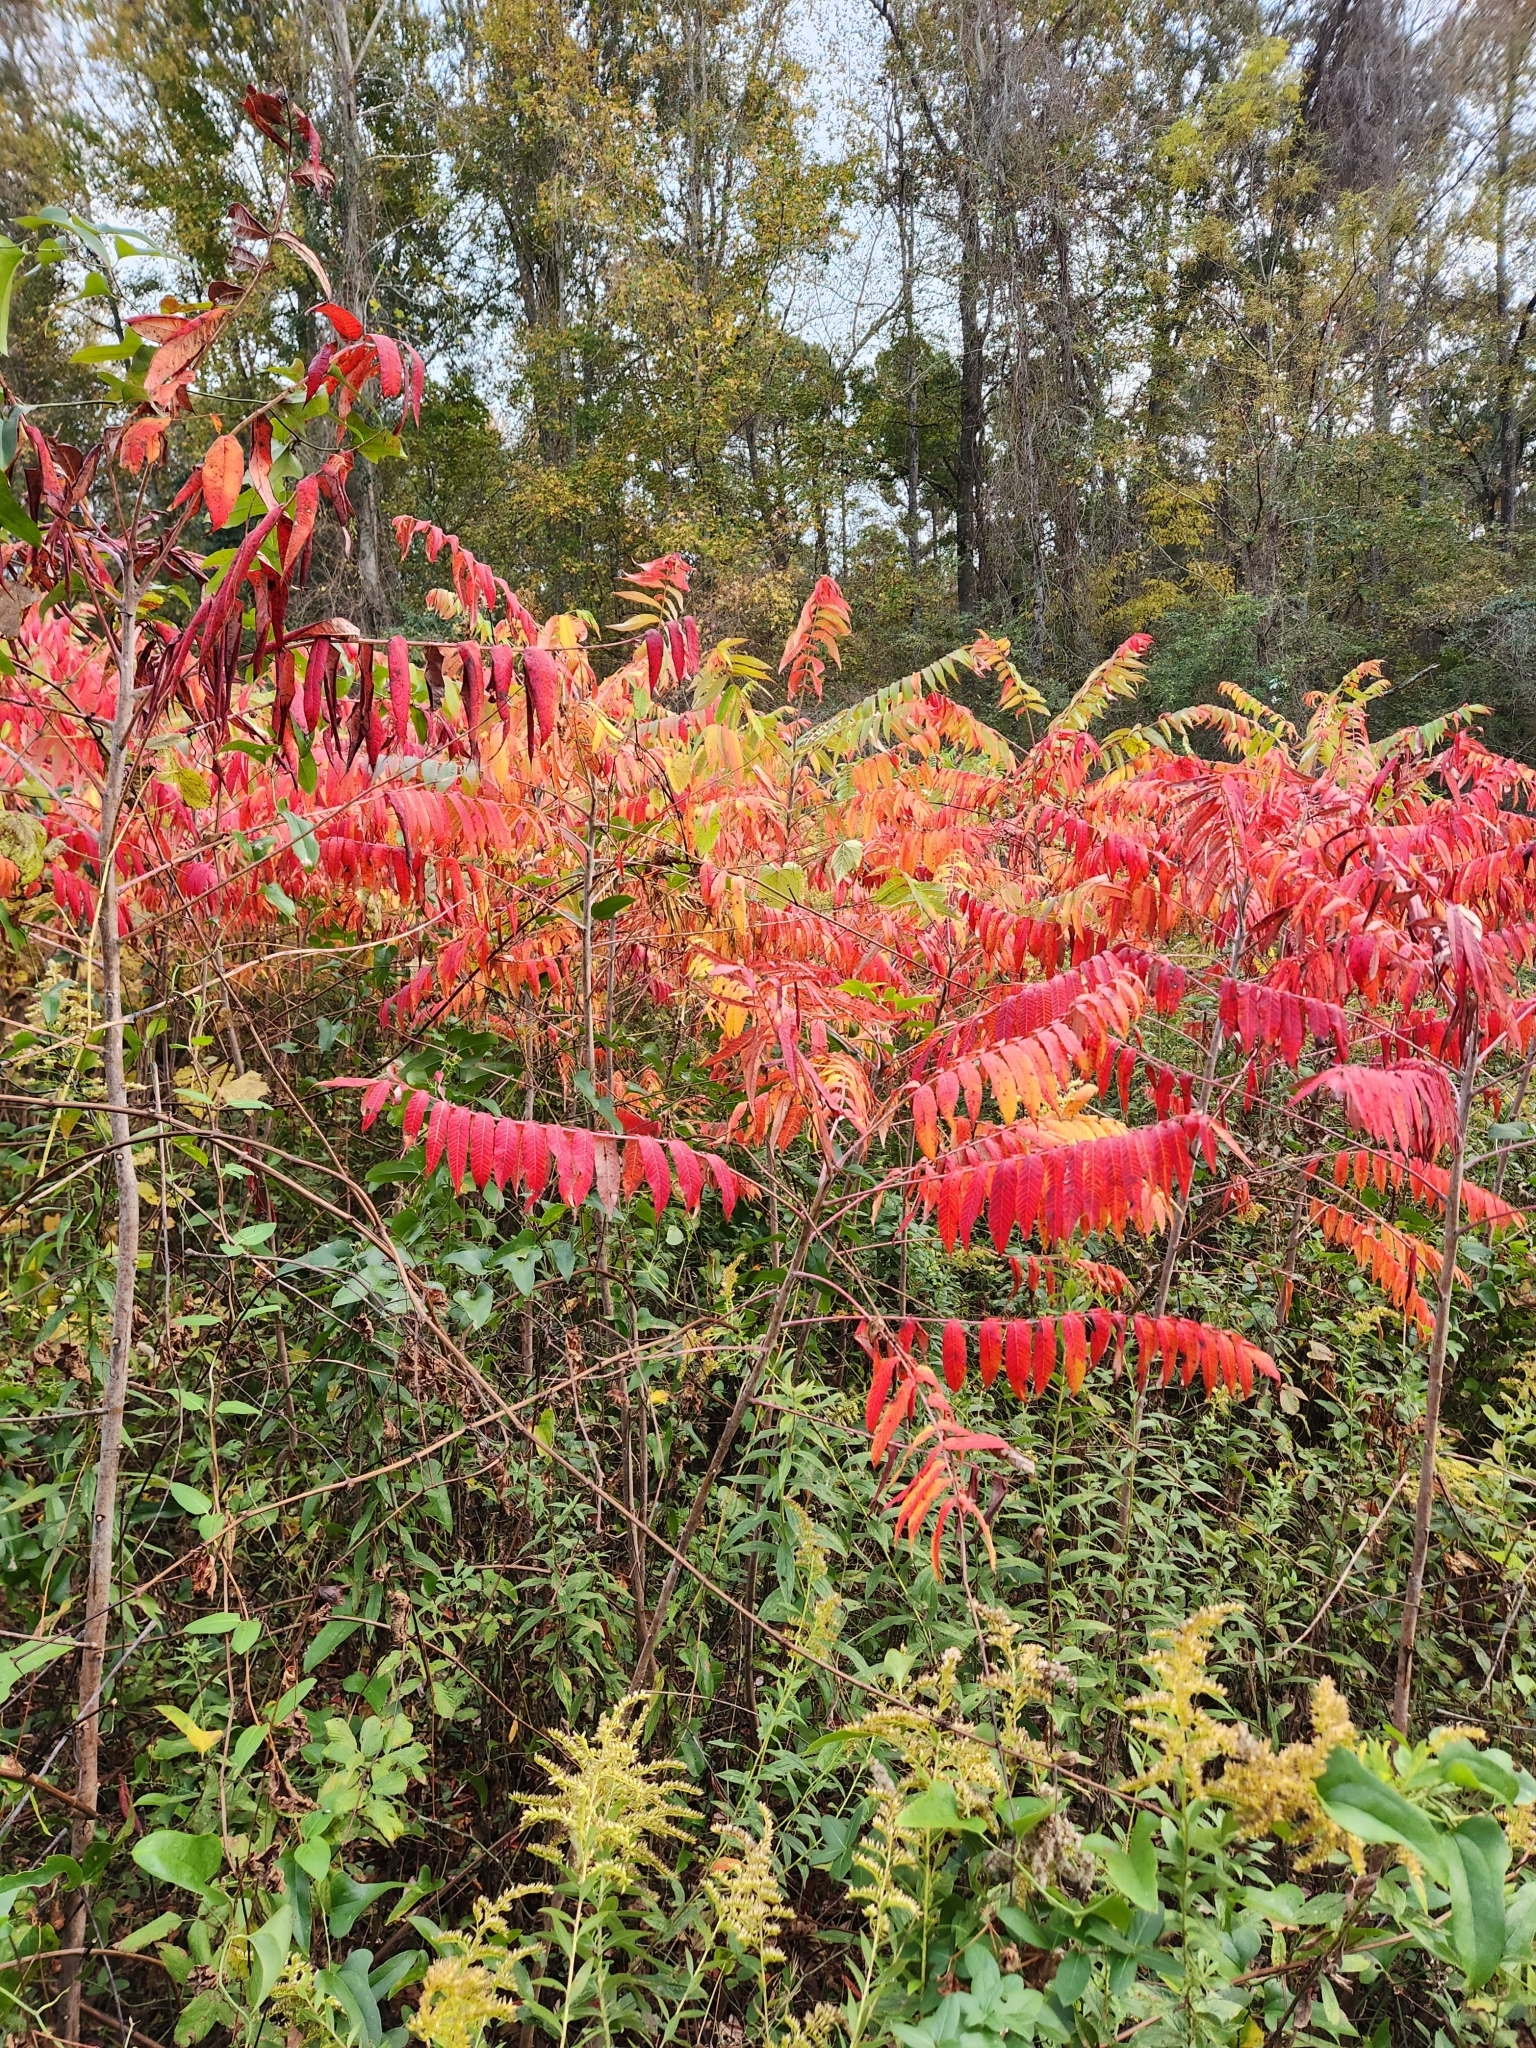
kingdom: Plantae
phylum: Tracheophyta
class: Magnoliopsida
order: Sapindales
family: Anacardiaceae
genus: Rhus
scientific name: Rhus glabra
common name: Scarlet sumac
